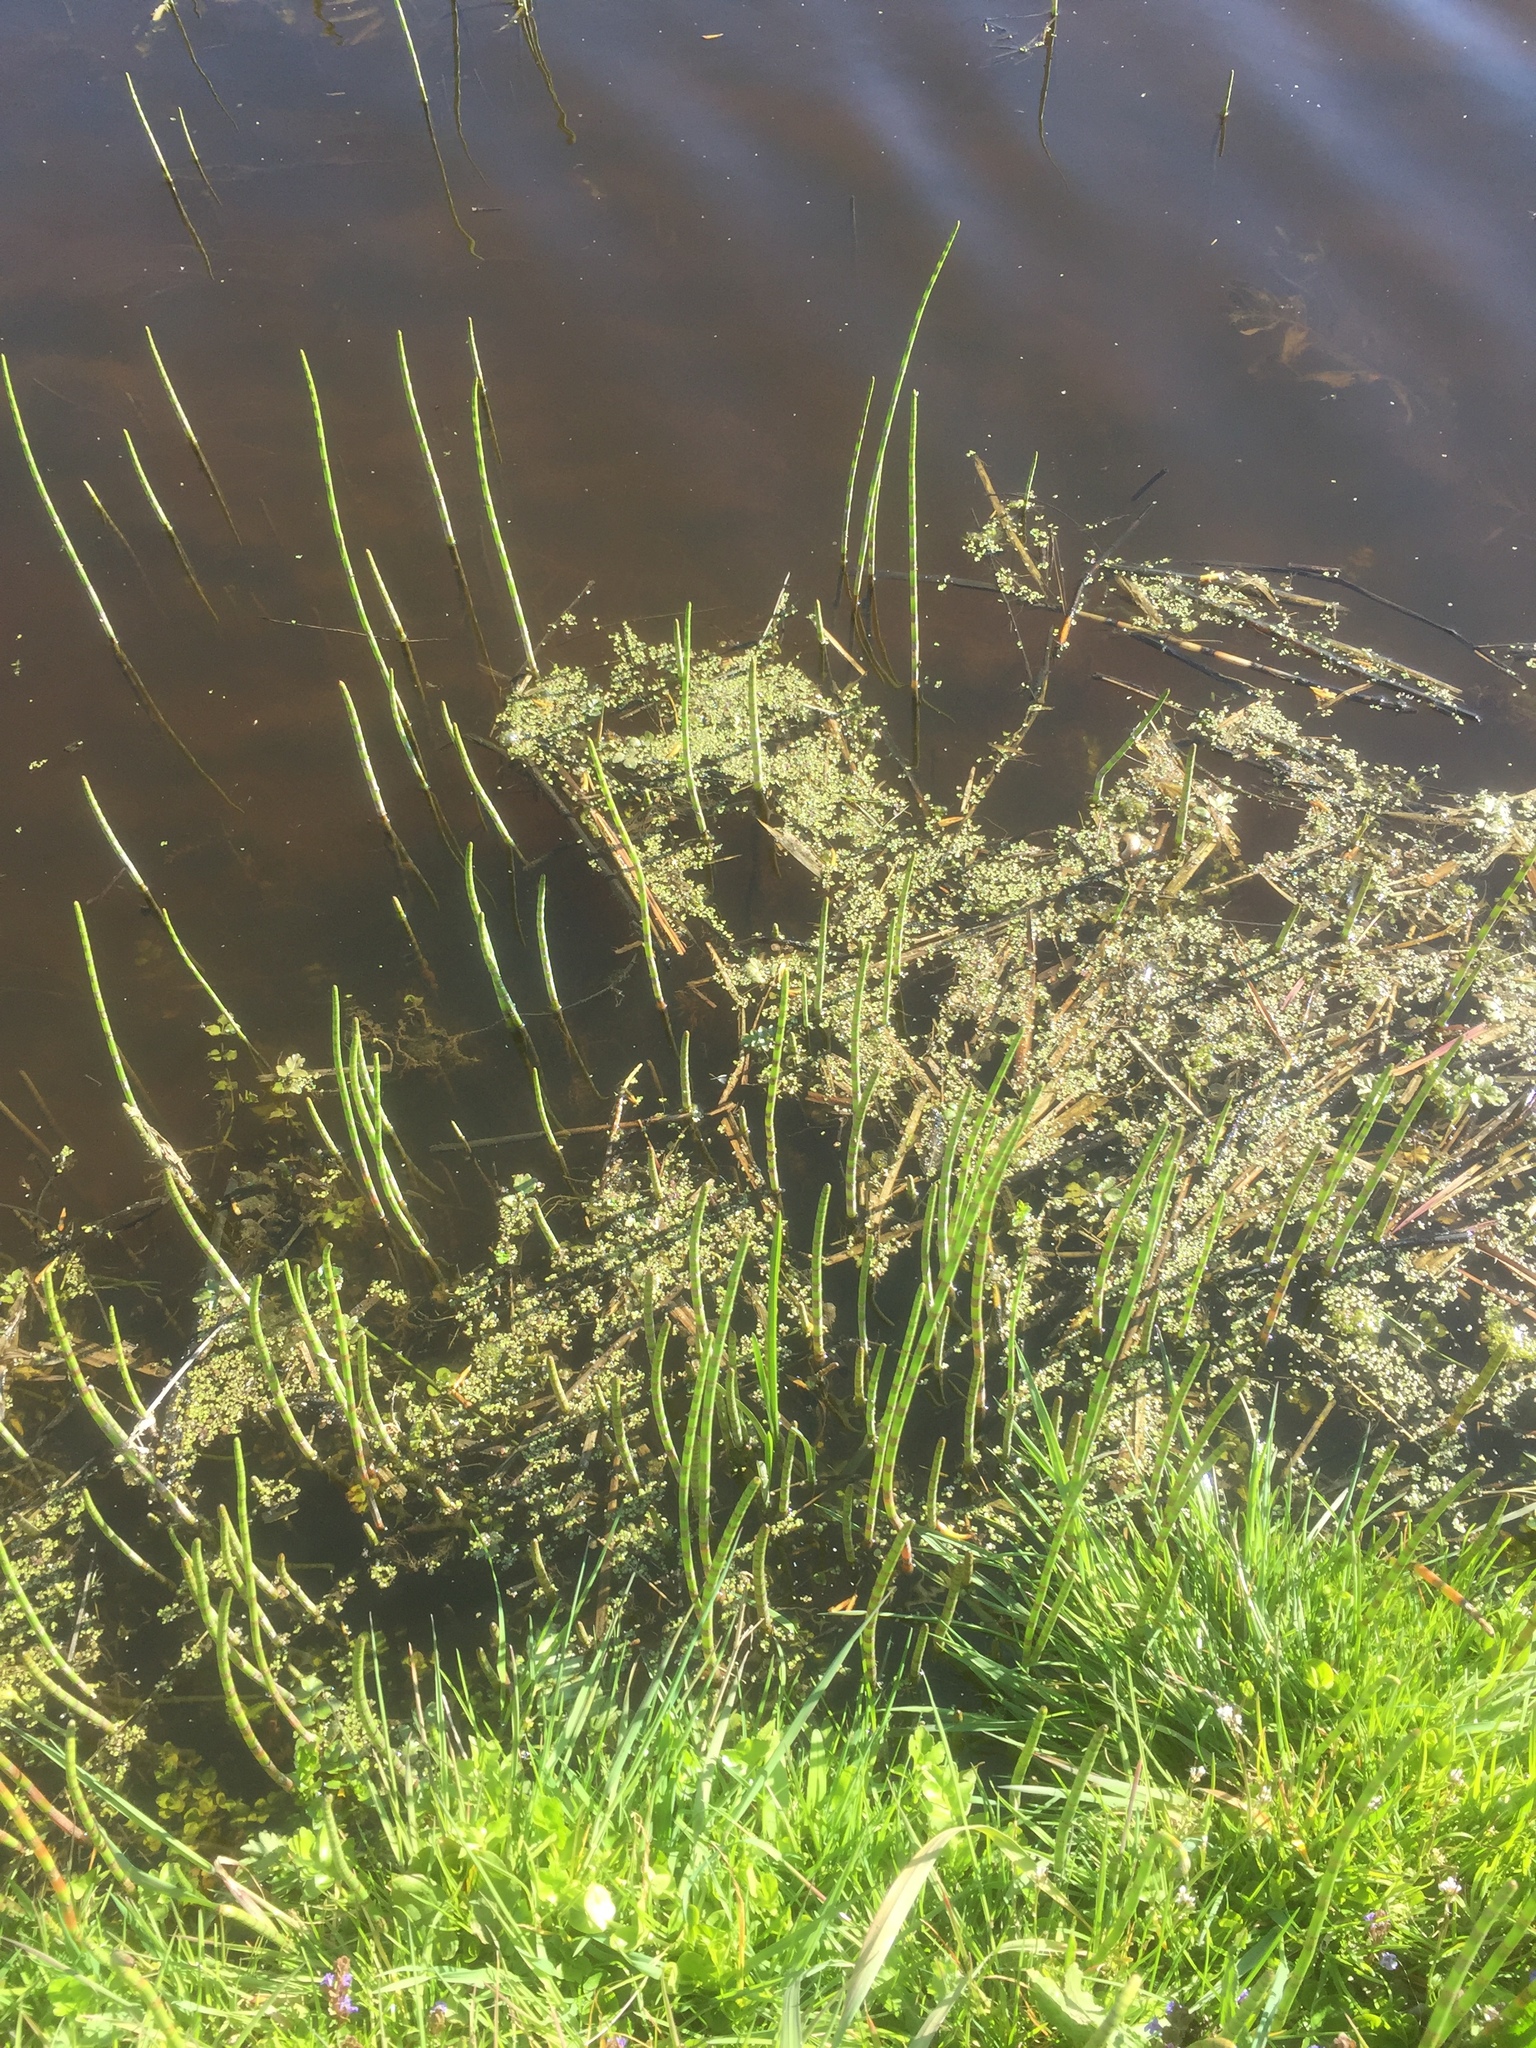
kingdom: Plantae
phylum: Tracheophyta
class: Polypodiopsida
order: Equisetales
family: Equisetaceae
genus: Equisetum
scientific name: Equisetum fluviatile
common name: Water horsetail
